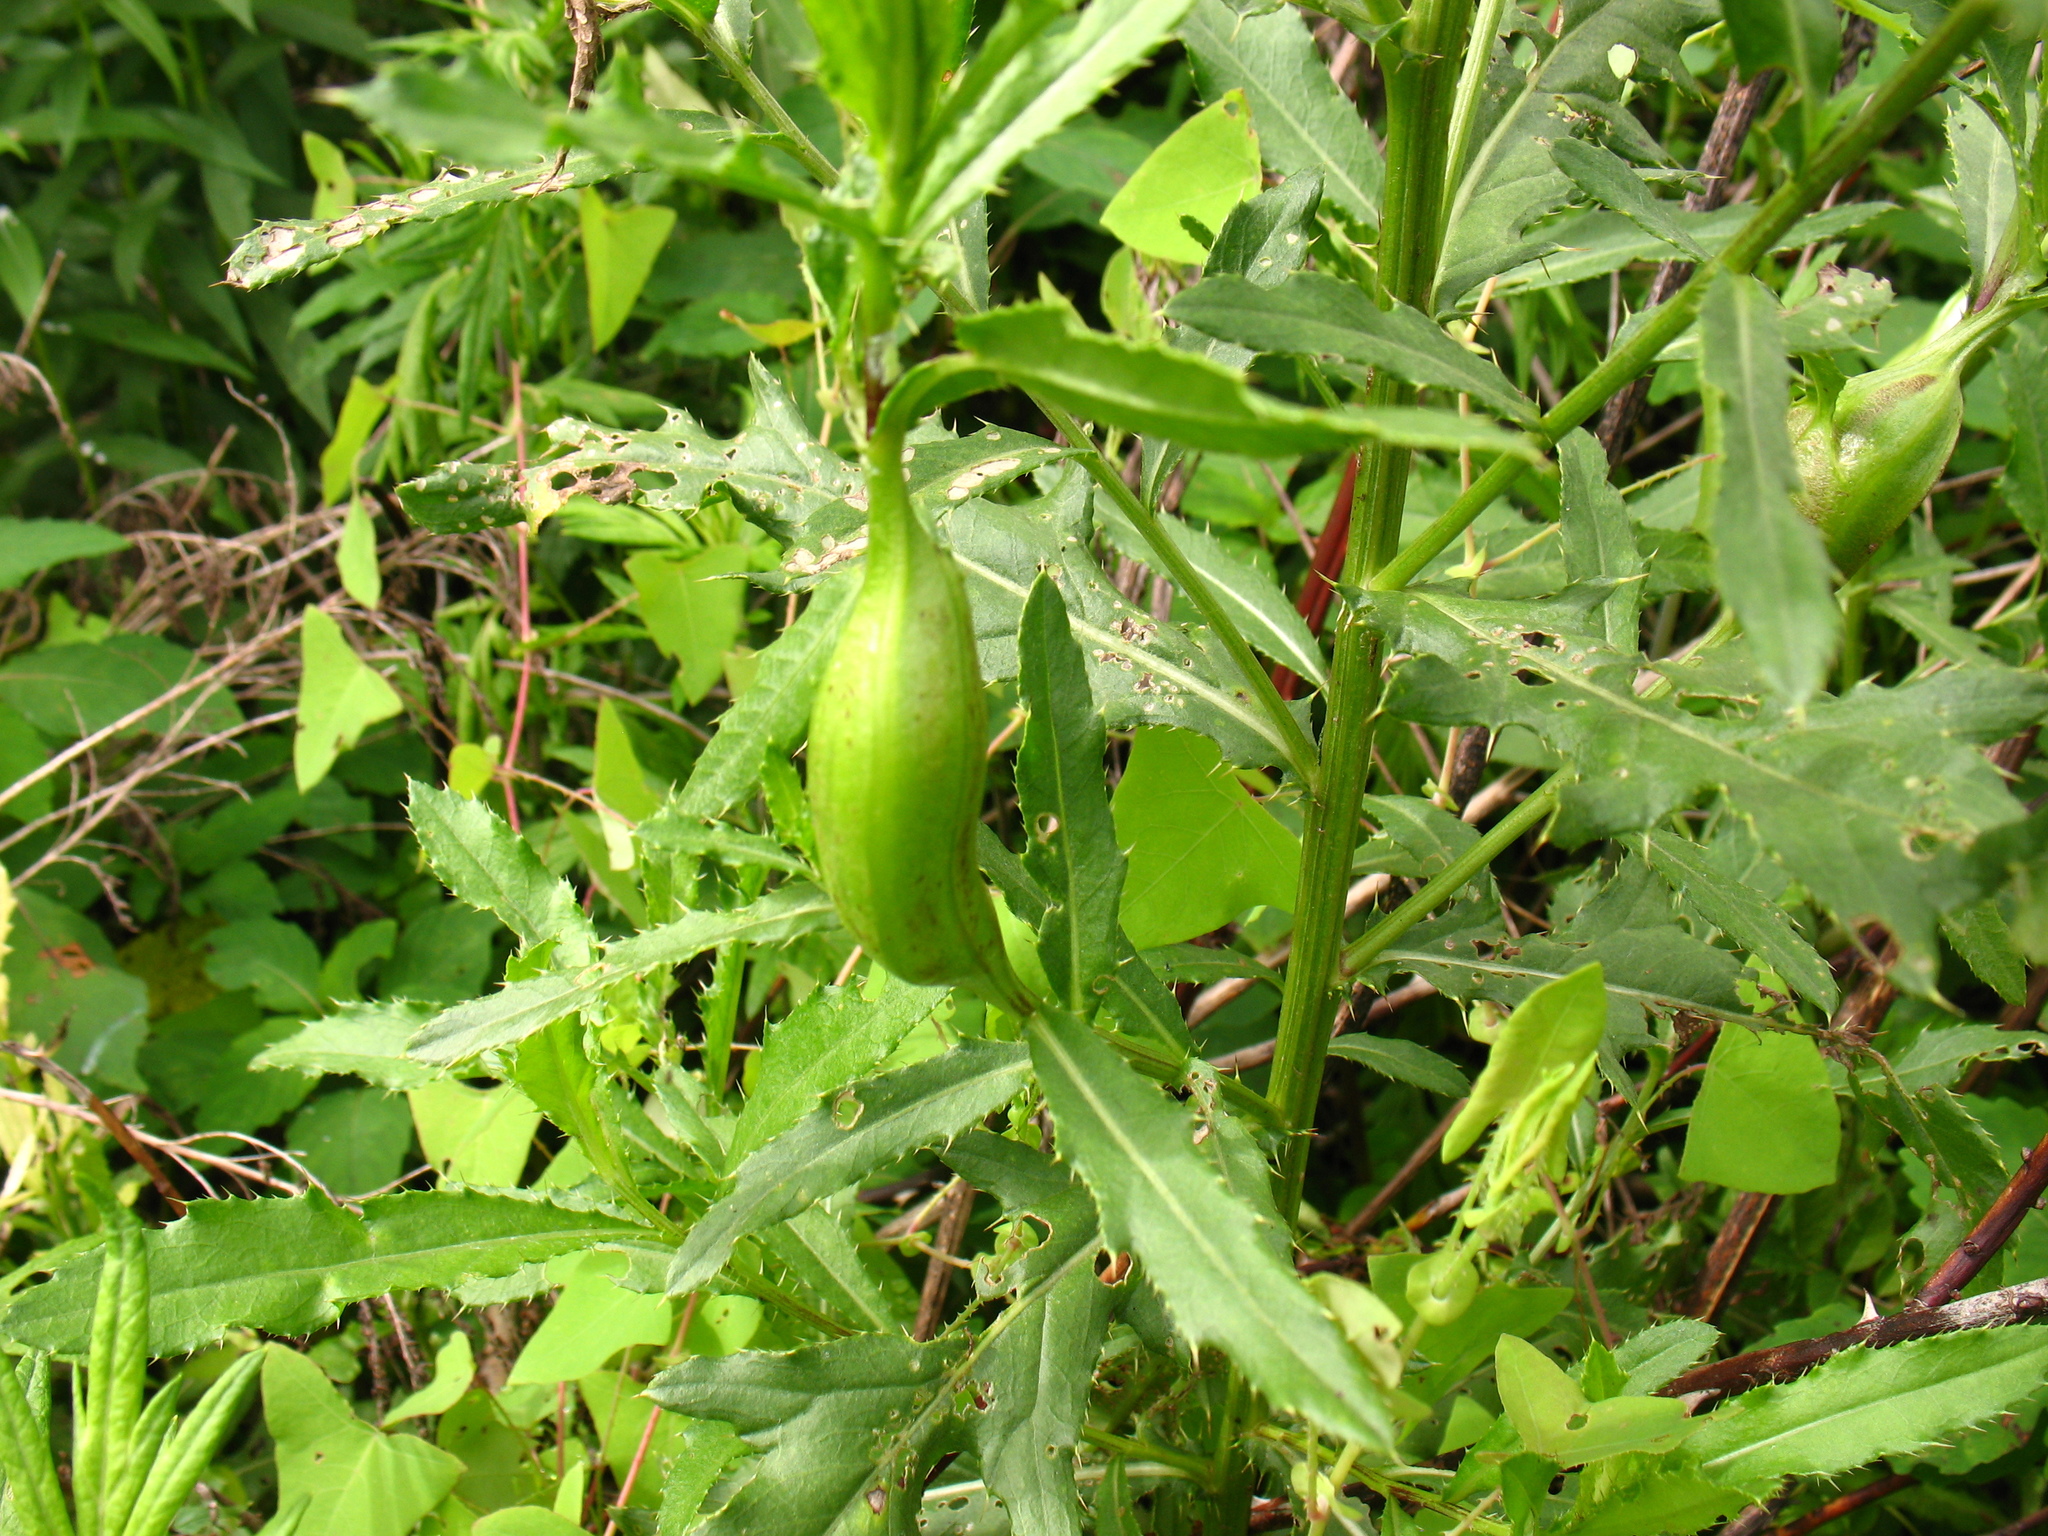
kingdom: Animalia
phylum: Arthropoda
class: Insecta
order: Diptera
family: Tephritidae
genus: Urophora
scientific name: Urophora cardui
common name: Fruit fly
